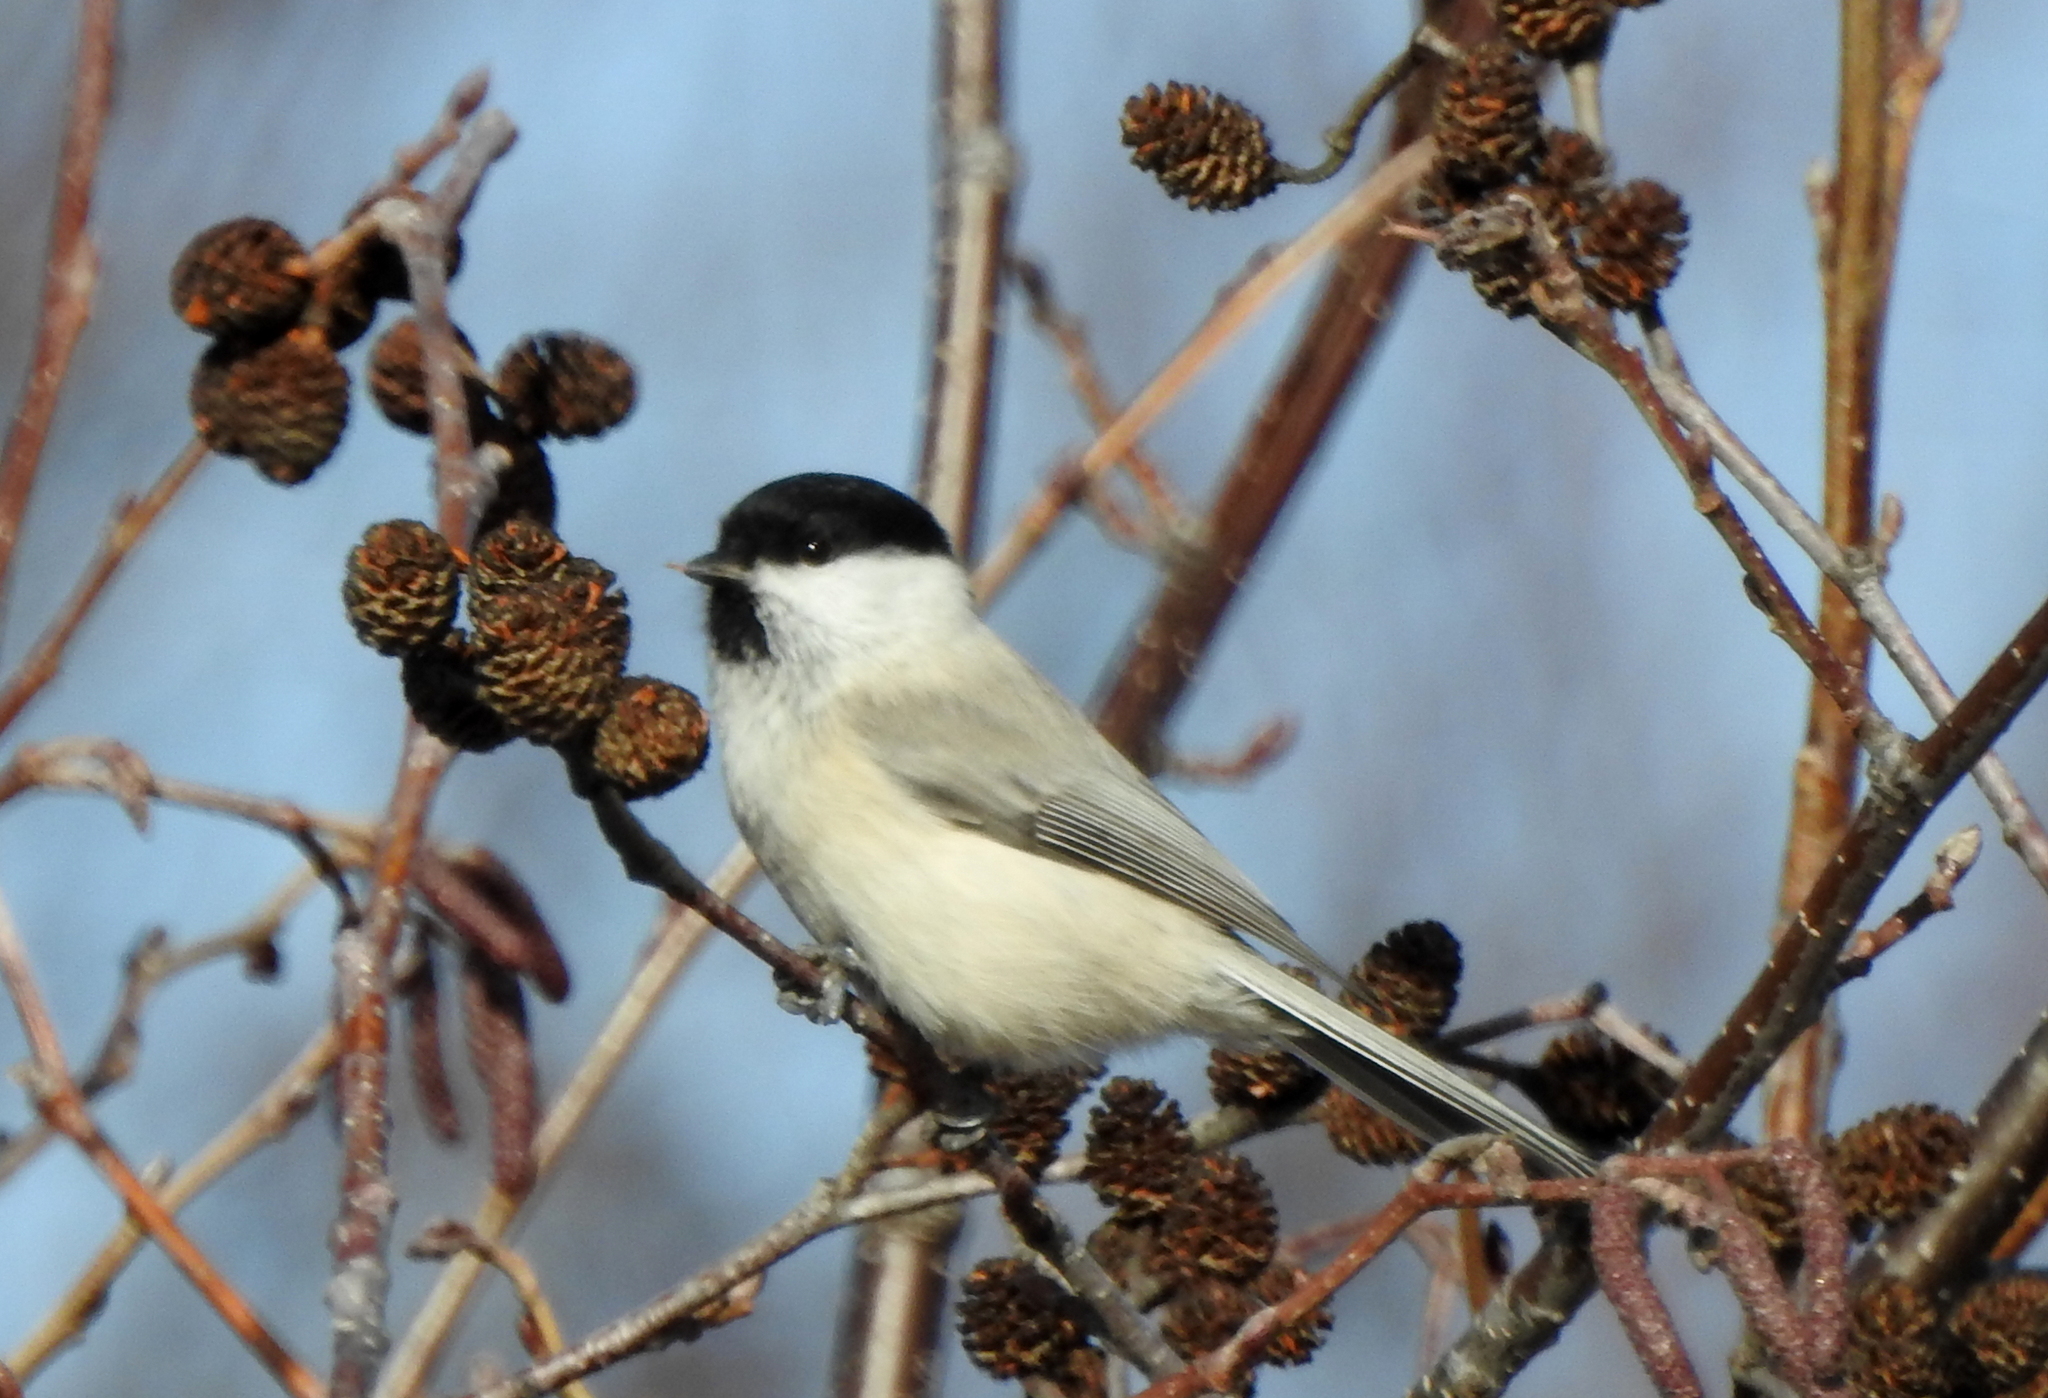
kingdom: Animalia
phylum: Chordata
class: Aves
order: Passeriformes
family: Paridae
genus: Poecile
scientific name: Poecile palustris
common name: Marsh tit
